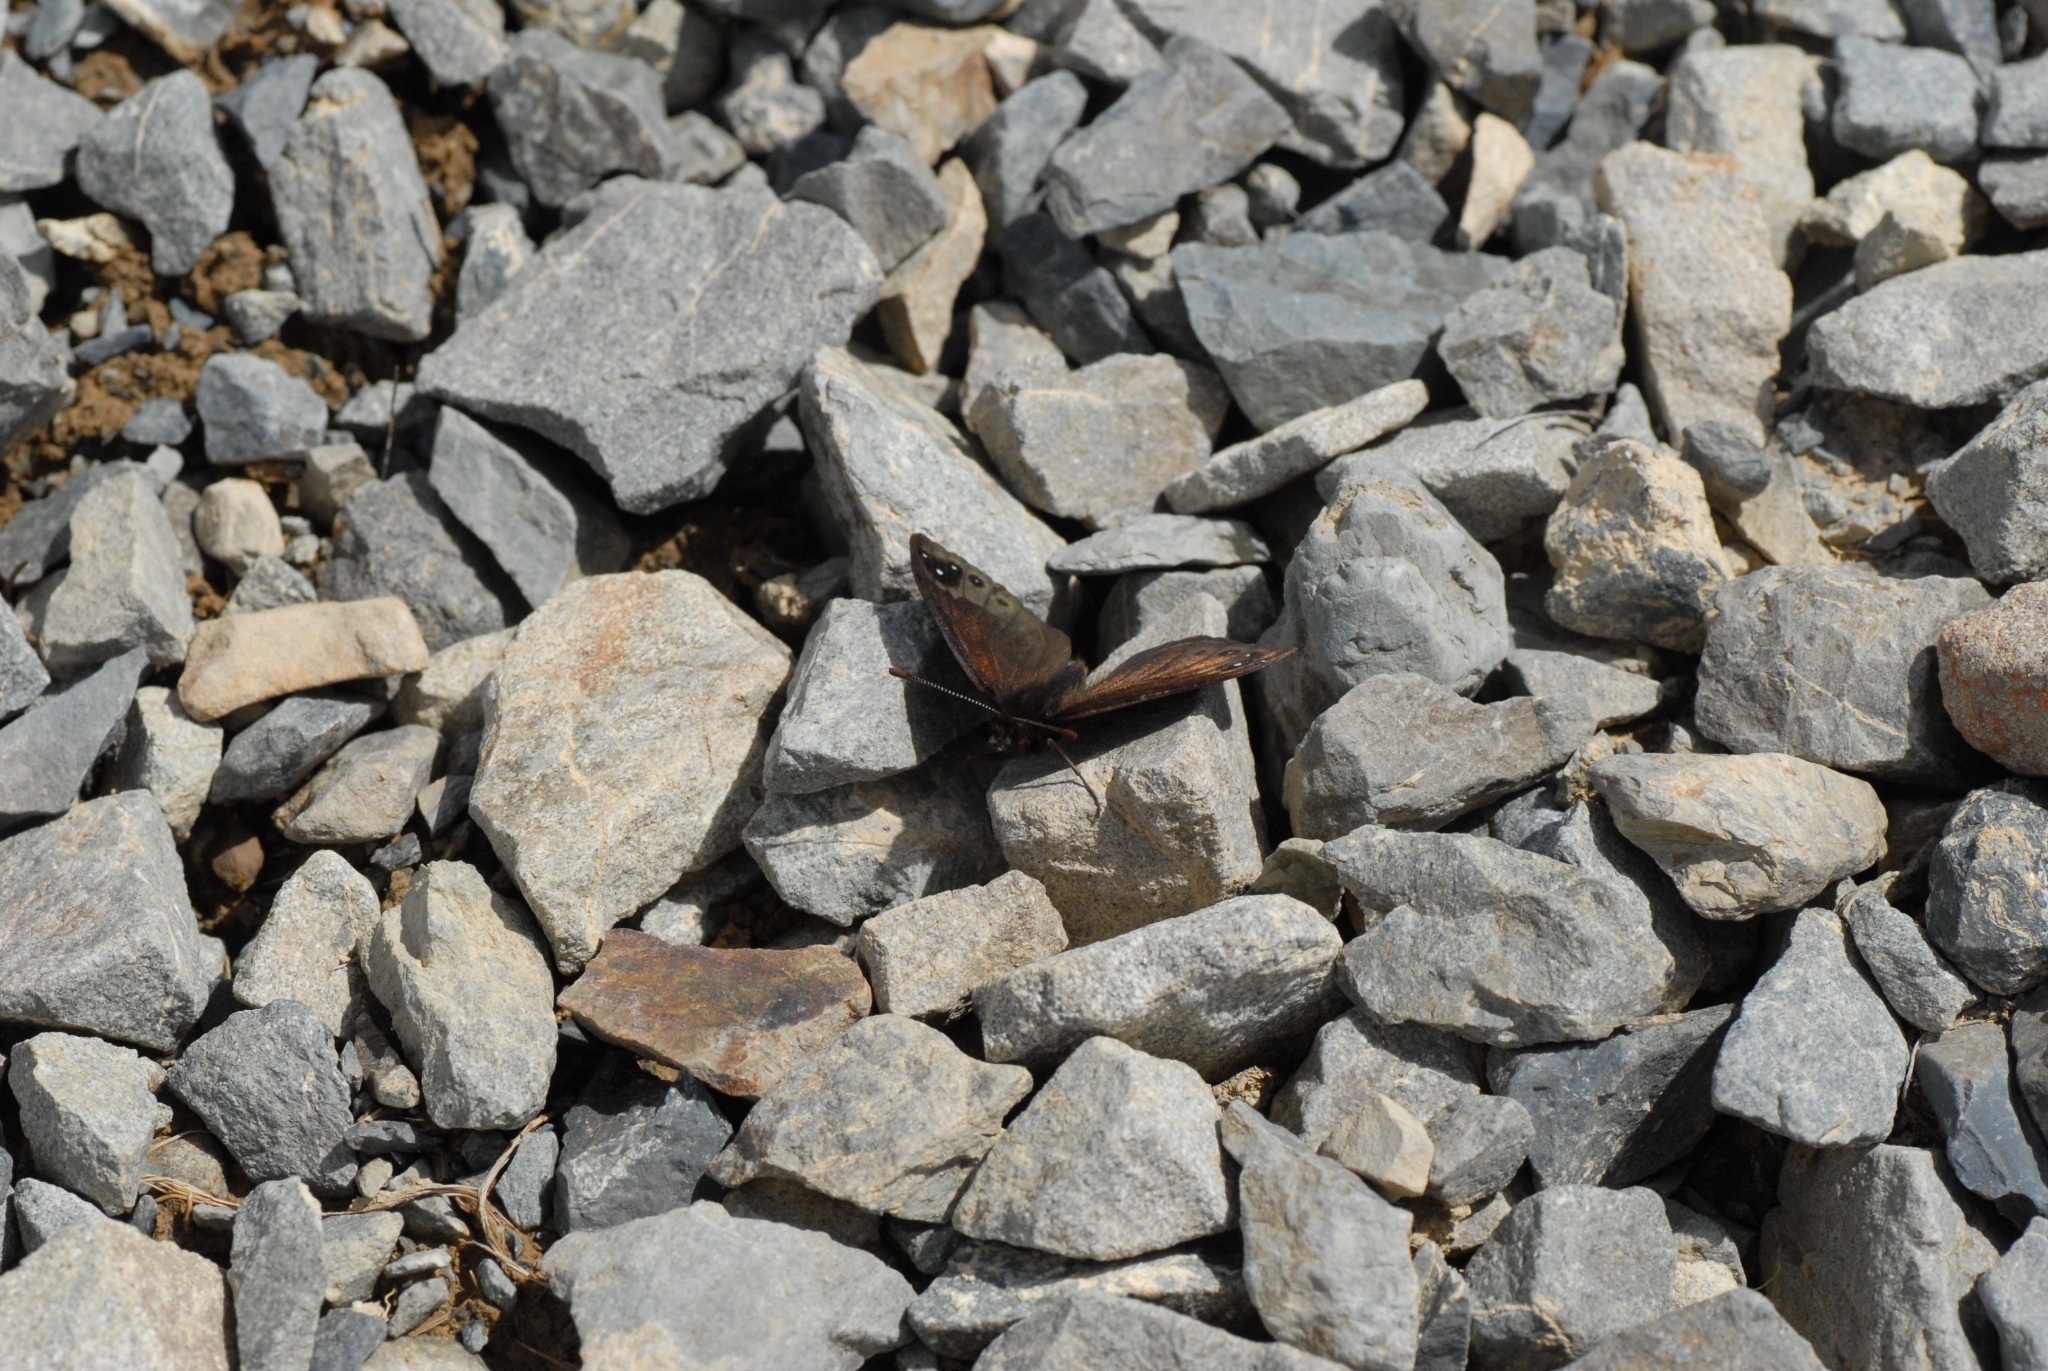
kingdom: Animalia
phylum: Arthropoda
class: Insecta
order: Lepidoptera
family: Nymphalidae
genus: Erebia
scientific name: Erebia Percnodaimon merula
